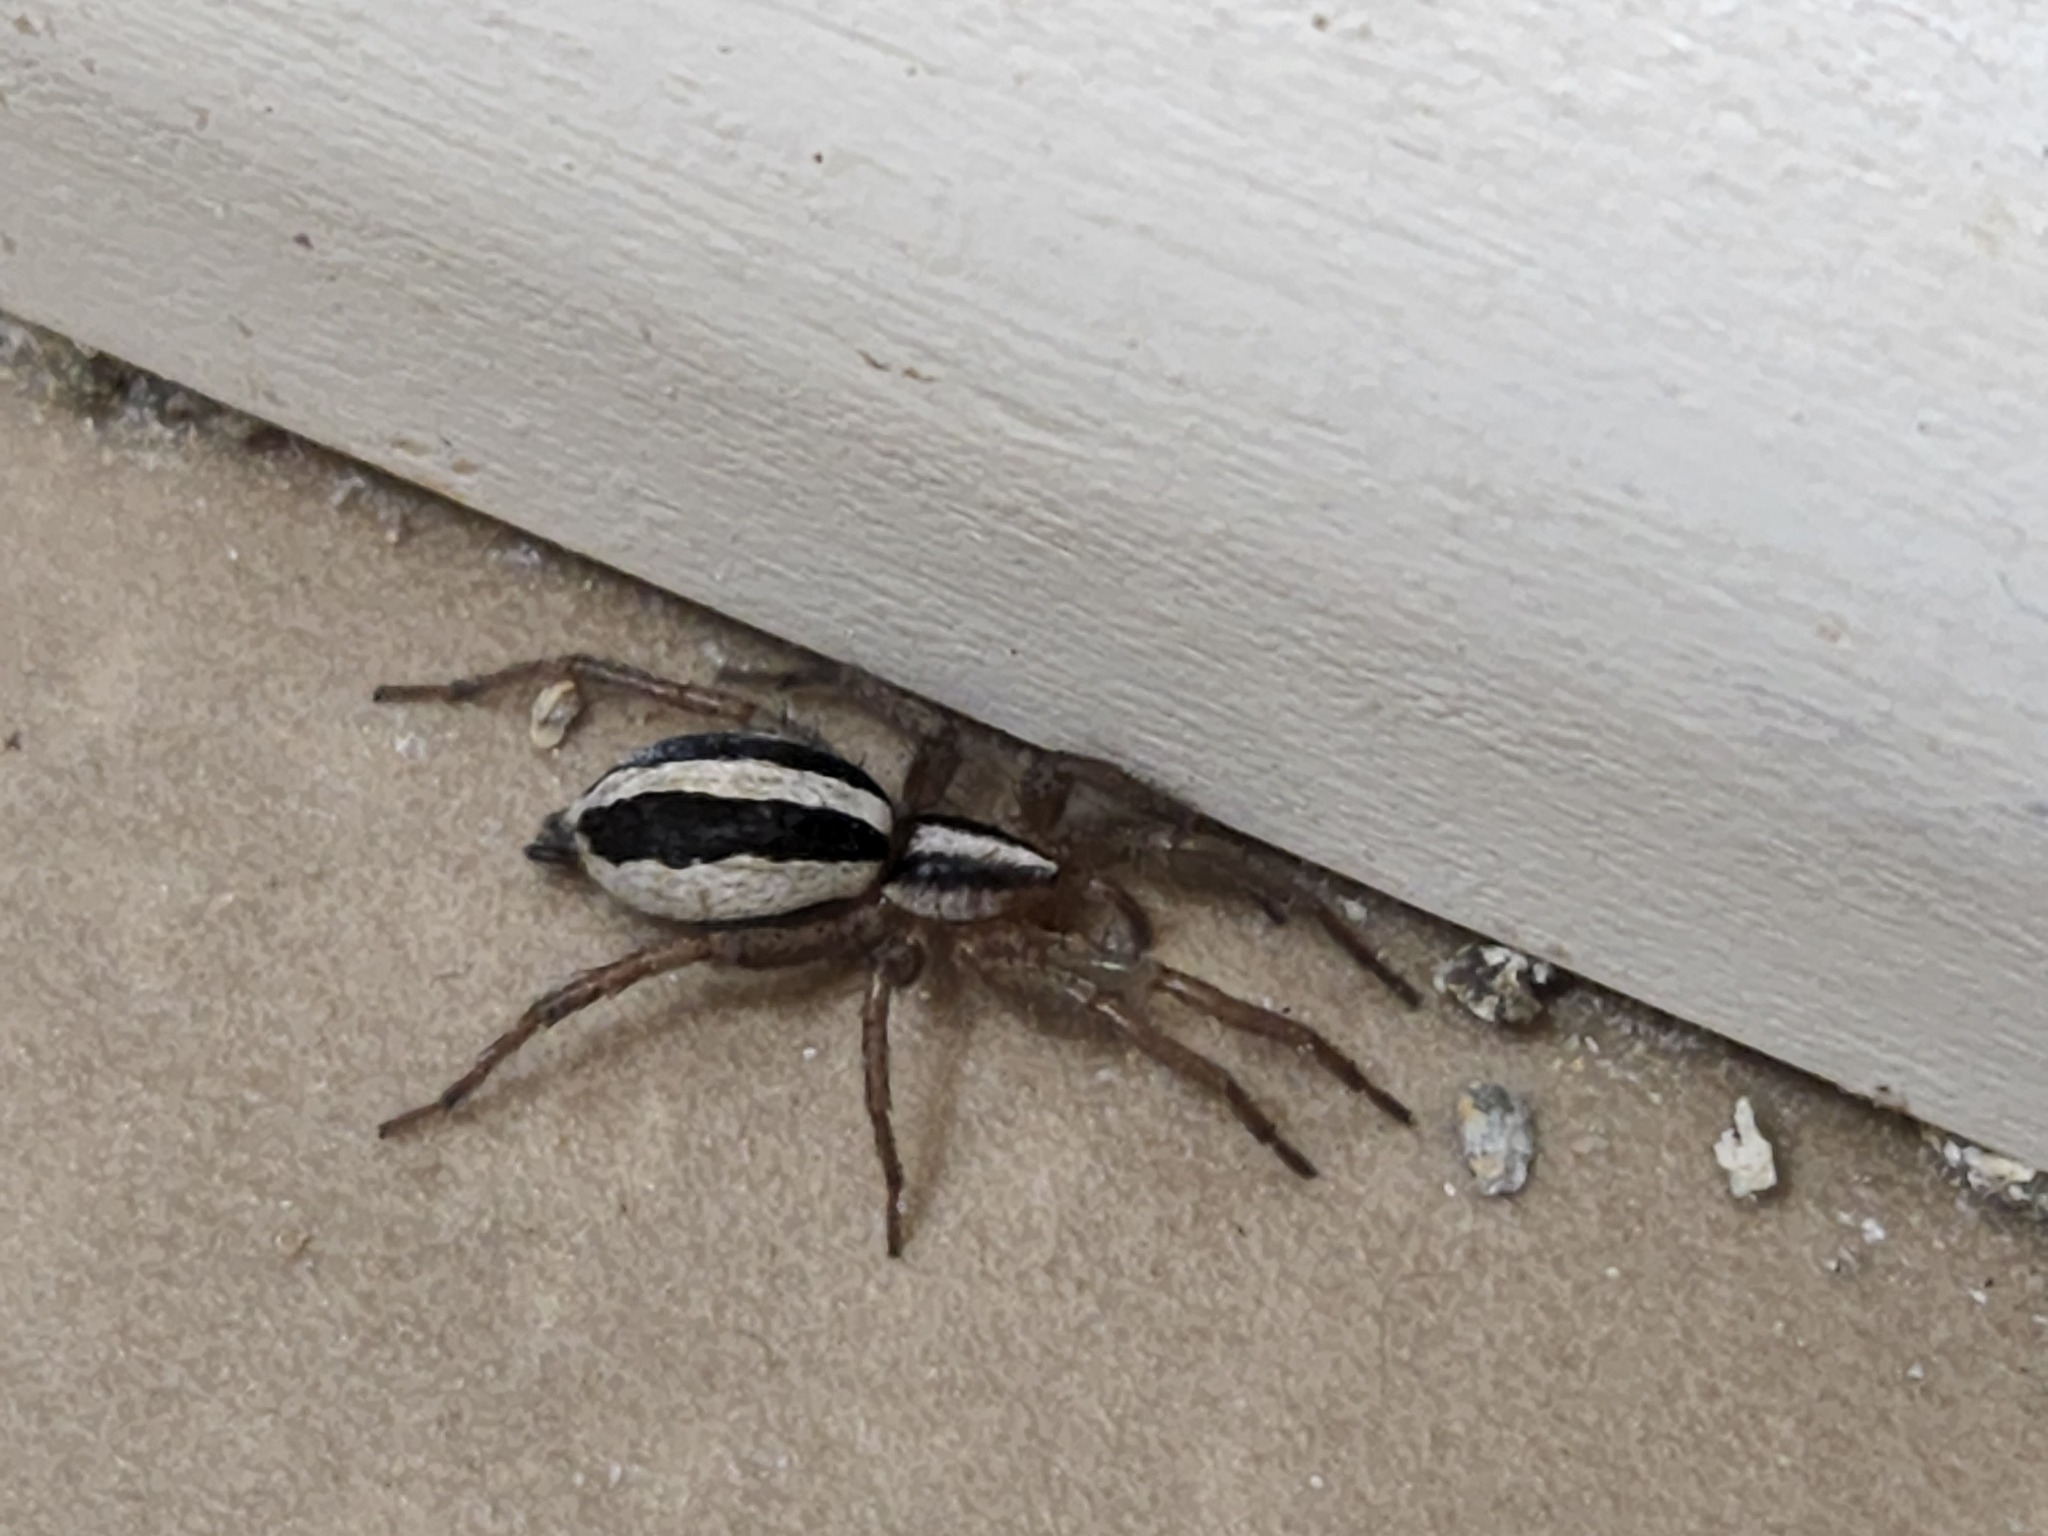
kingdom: Animalia
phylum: Arthropoda
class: Arachnida
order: Araneae
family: Gnaphosidae
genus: Cesonia
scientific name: Cesonia bilineata
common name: Two-lined stealthy ground spider
